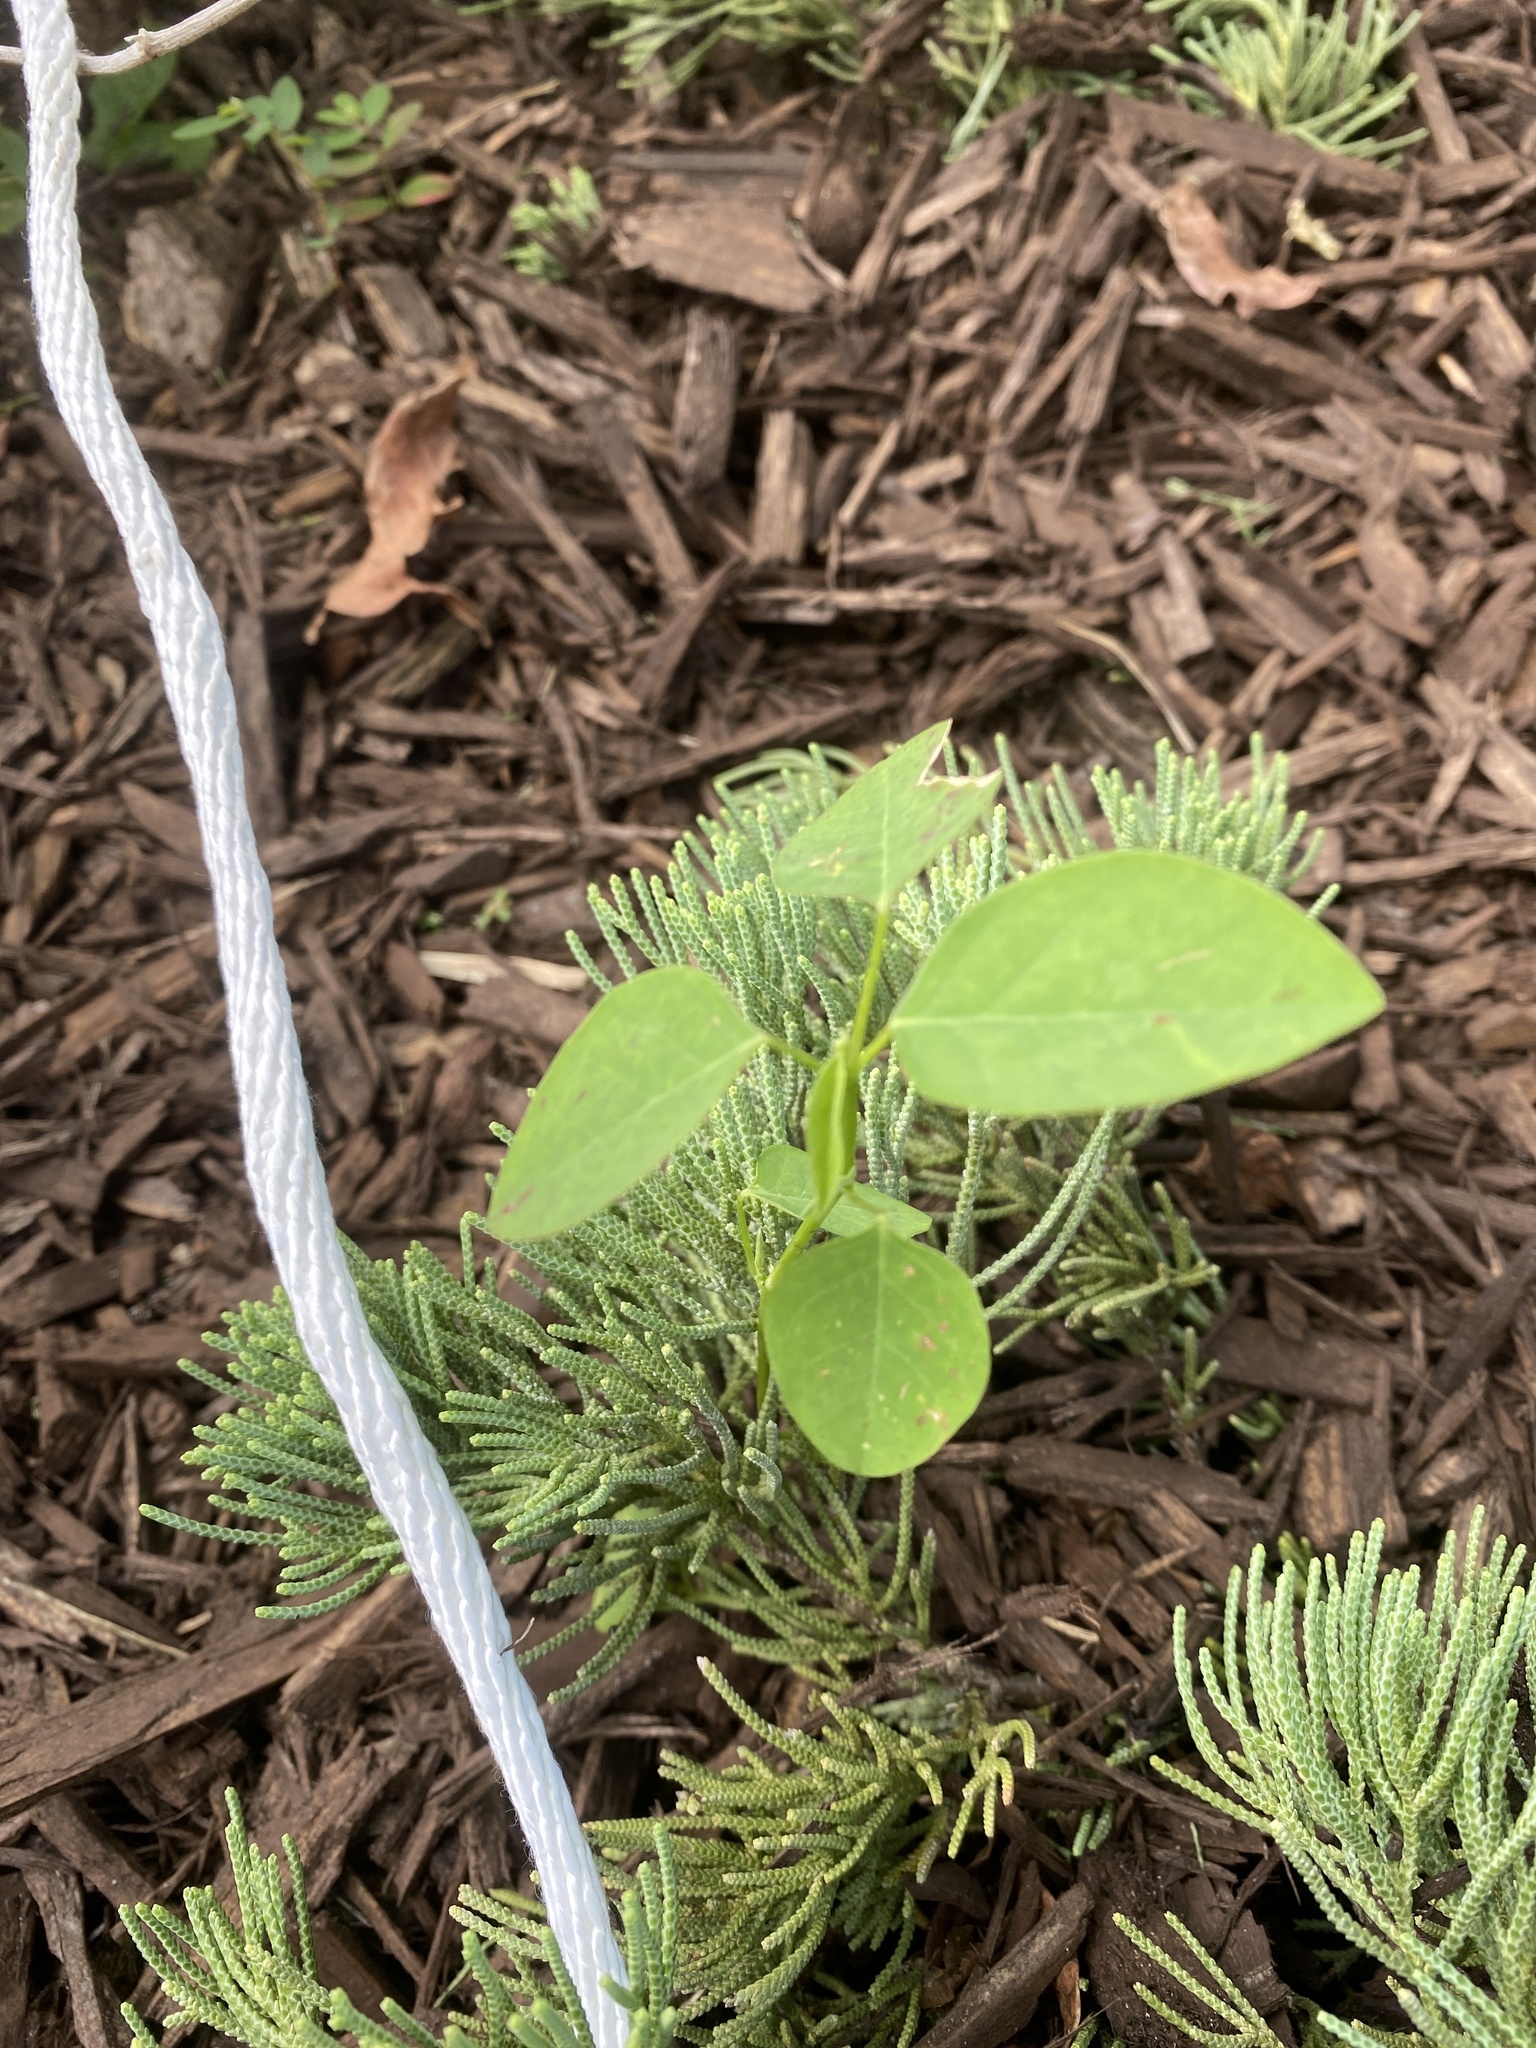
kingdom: Plantae
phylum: Tracheophyta
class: Magnoliopsida
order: Malpighiales
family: Euphorbiaceae
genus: Euphorbia
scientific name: Euphorbia graminea
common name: Grassleaf spurge
